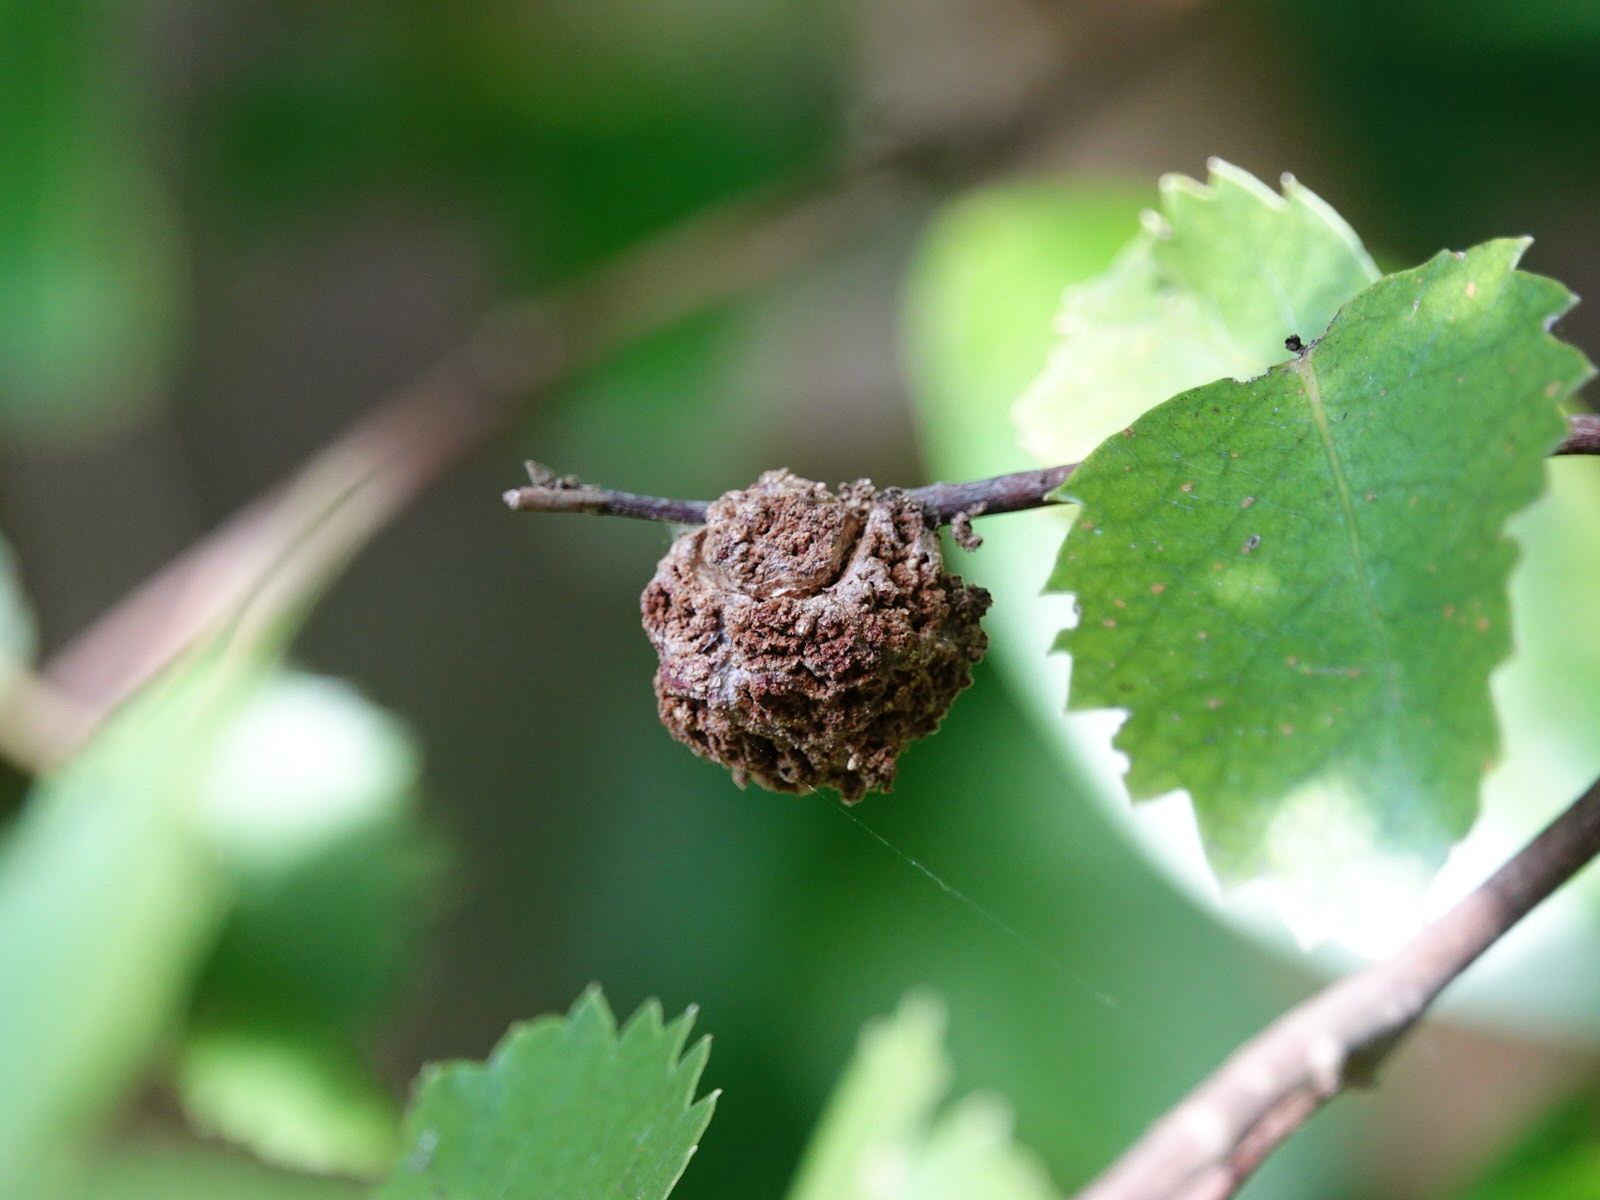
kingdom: Animalia
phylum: Arthropoda
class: Arachnida
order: Trombidiformes
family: Eriophyidae
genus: Eriophyes
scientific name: Eriophyes hoheriae
